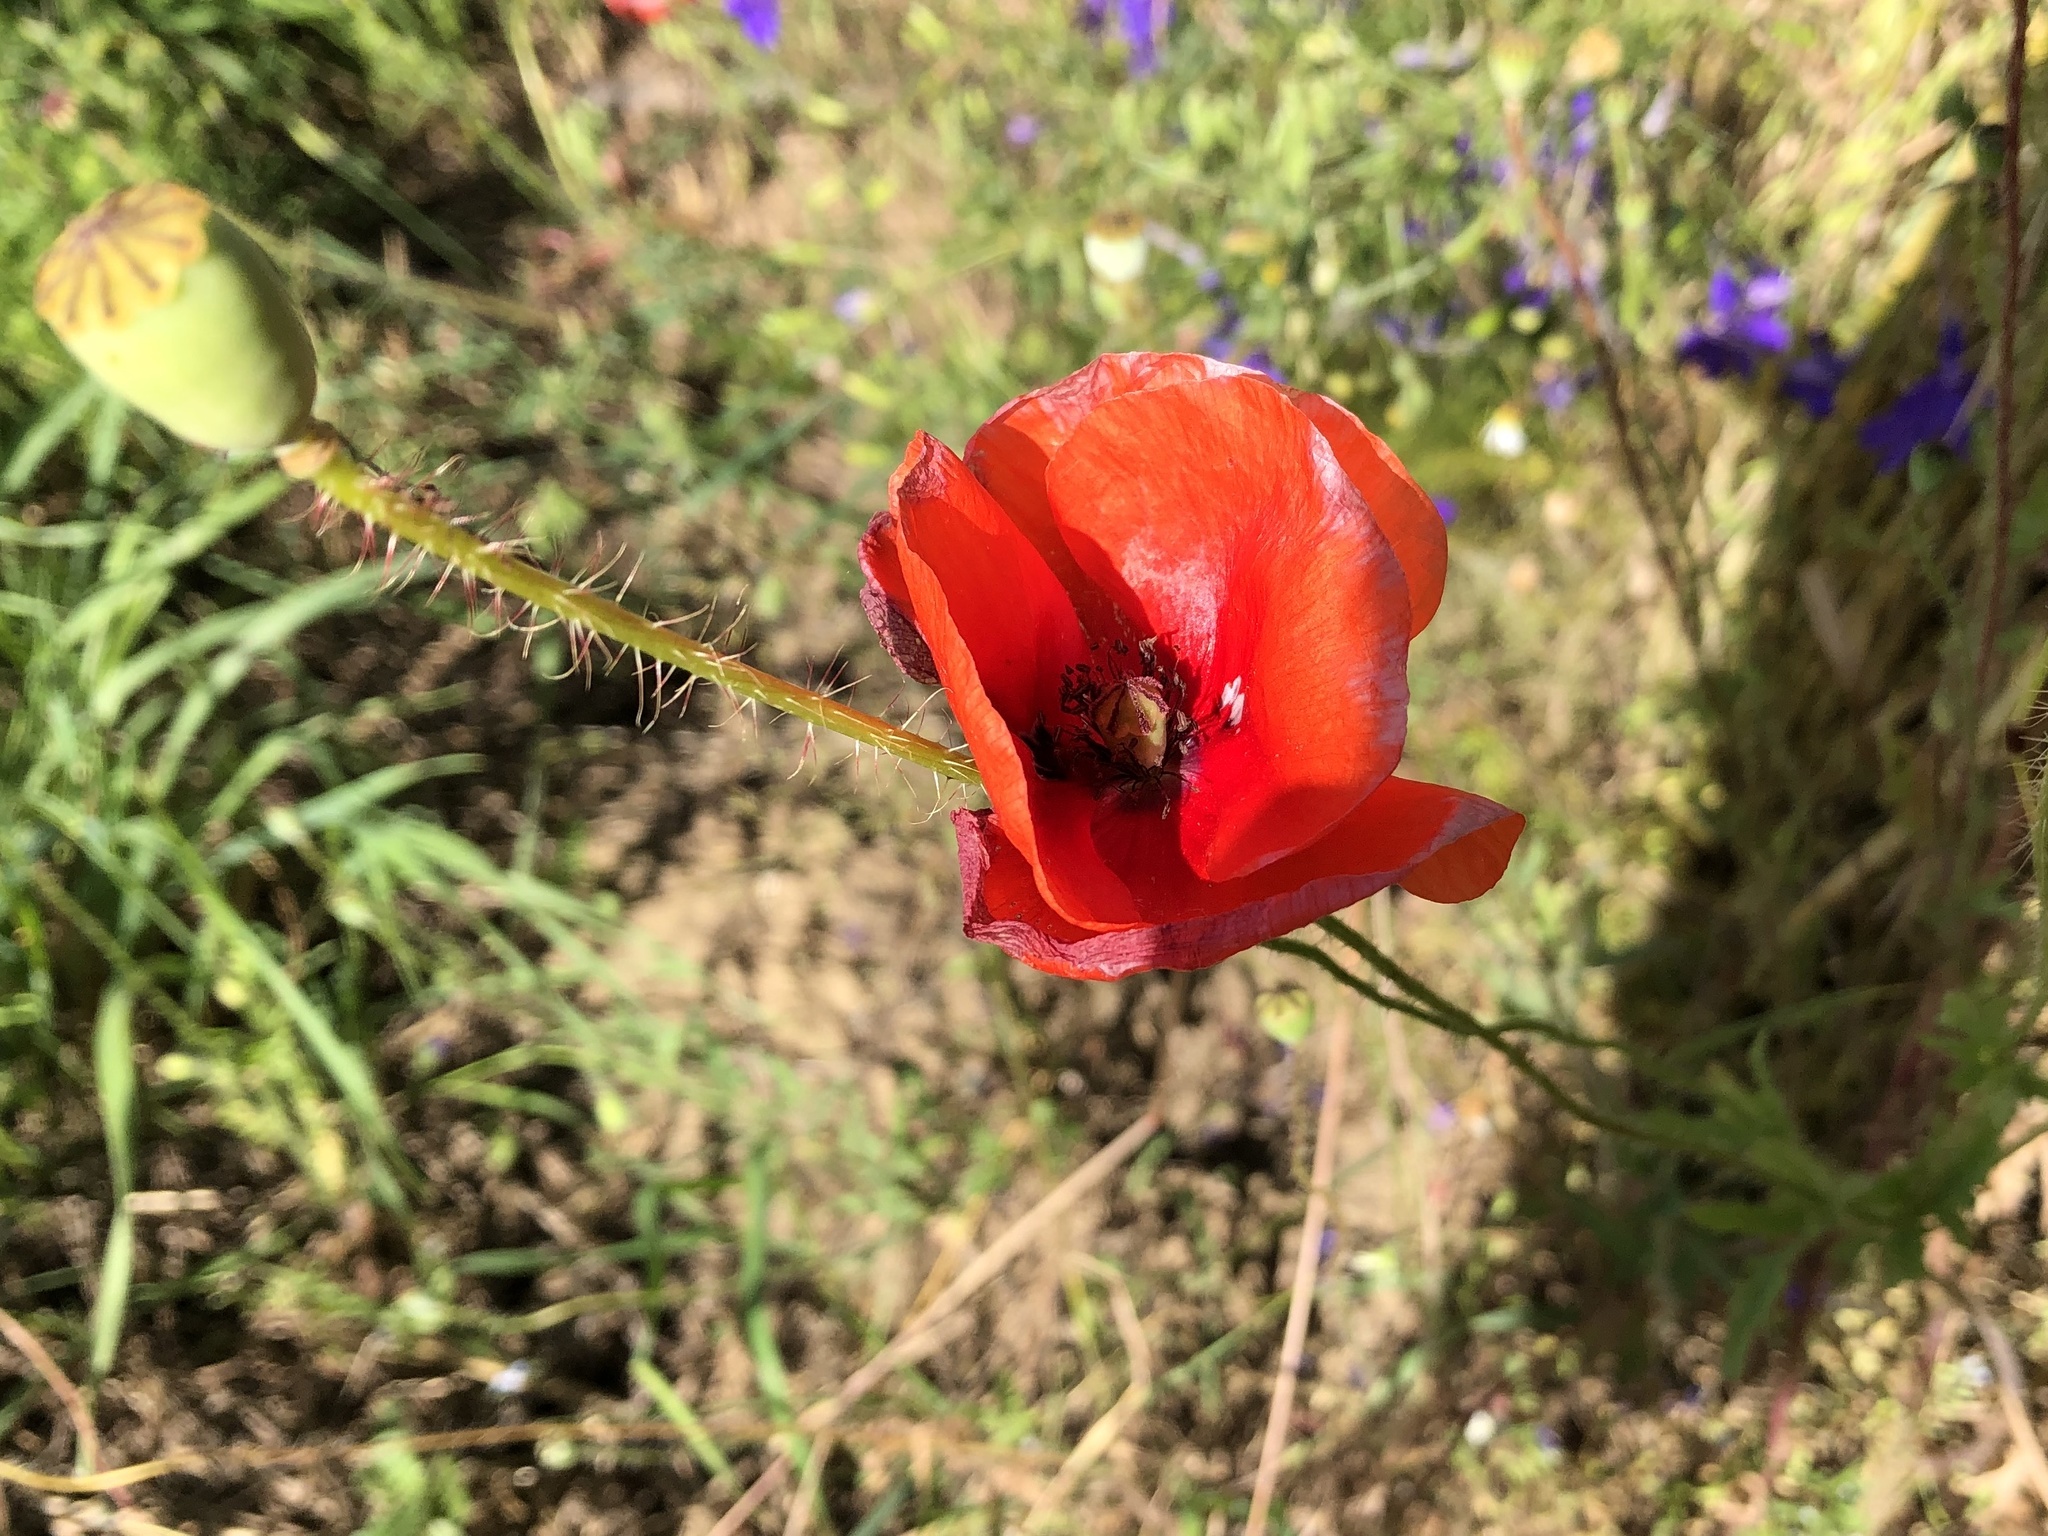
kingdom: Plantae
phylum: Tracheophyta
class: Magnoliopsida
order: Ranunculales
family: Papaveraceae
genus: Papaver
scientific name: Papaver rhoeas
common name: Corn poppy
